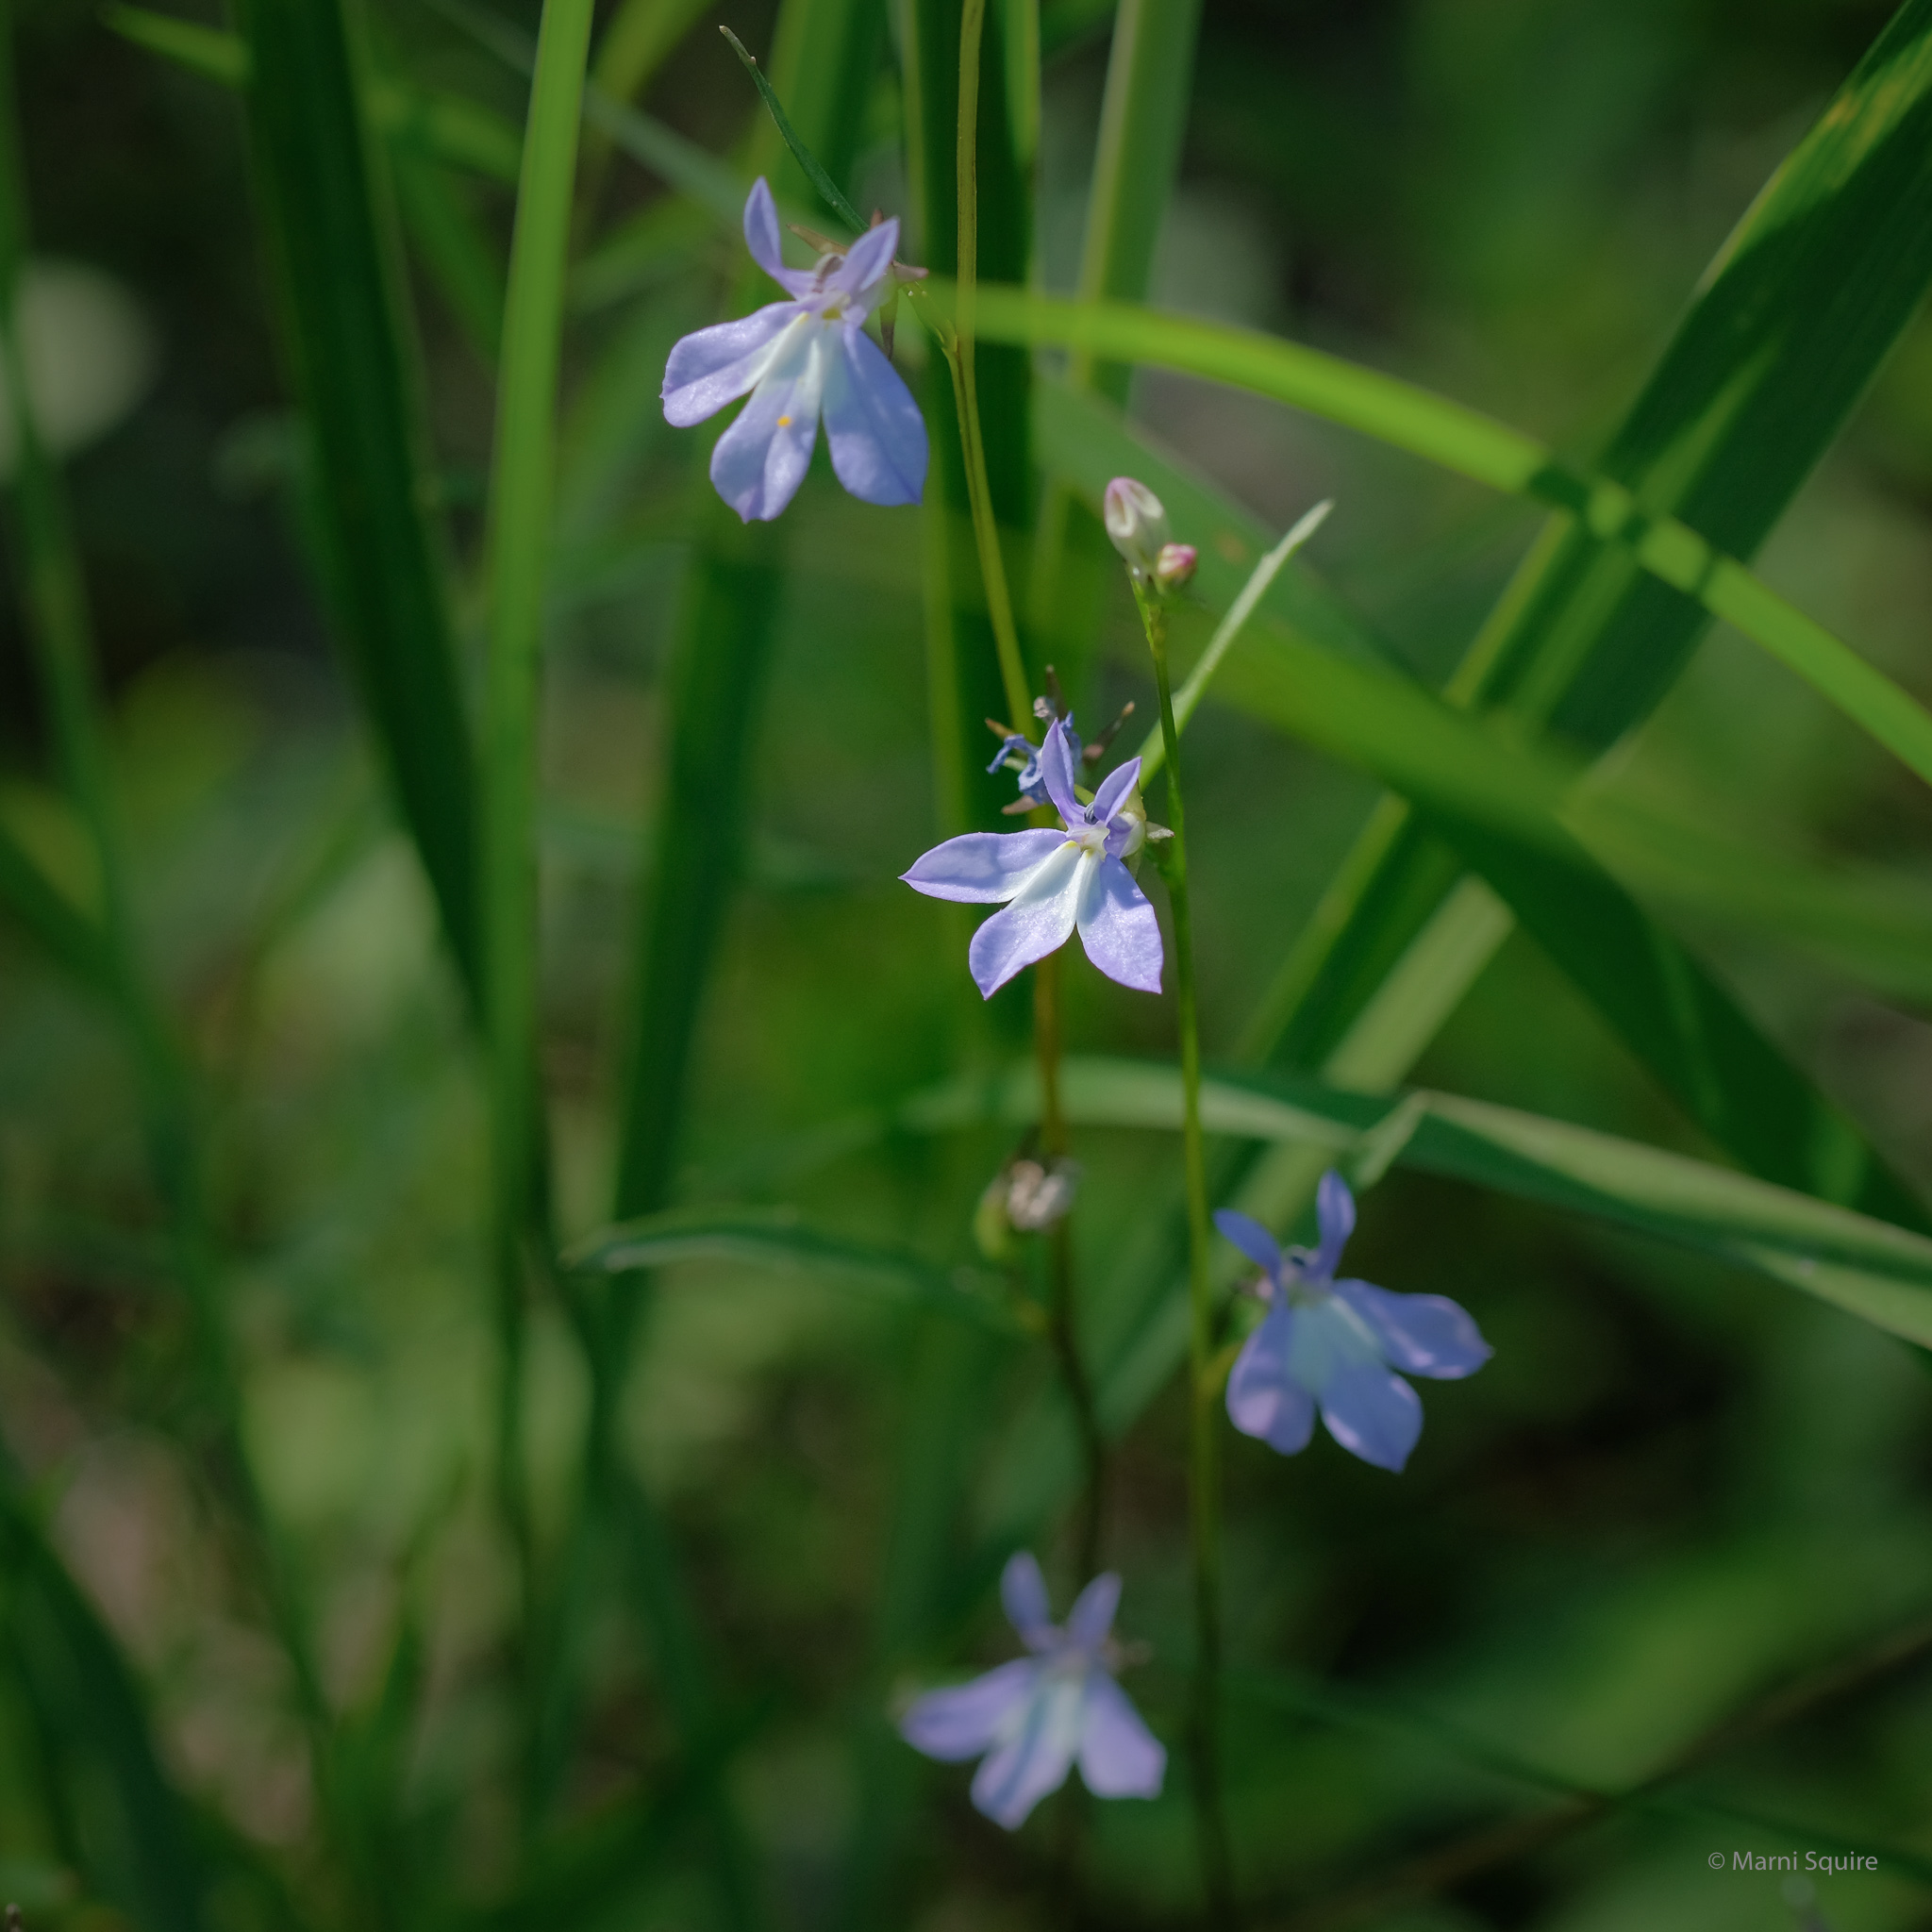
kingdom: Plantae
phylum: Tracheophyta
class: Magnoliopsida
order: Asterales
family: Campanulaceae
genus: Lobelia
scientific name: Lobelia kalmii
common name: Kalm's lobelia
